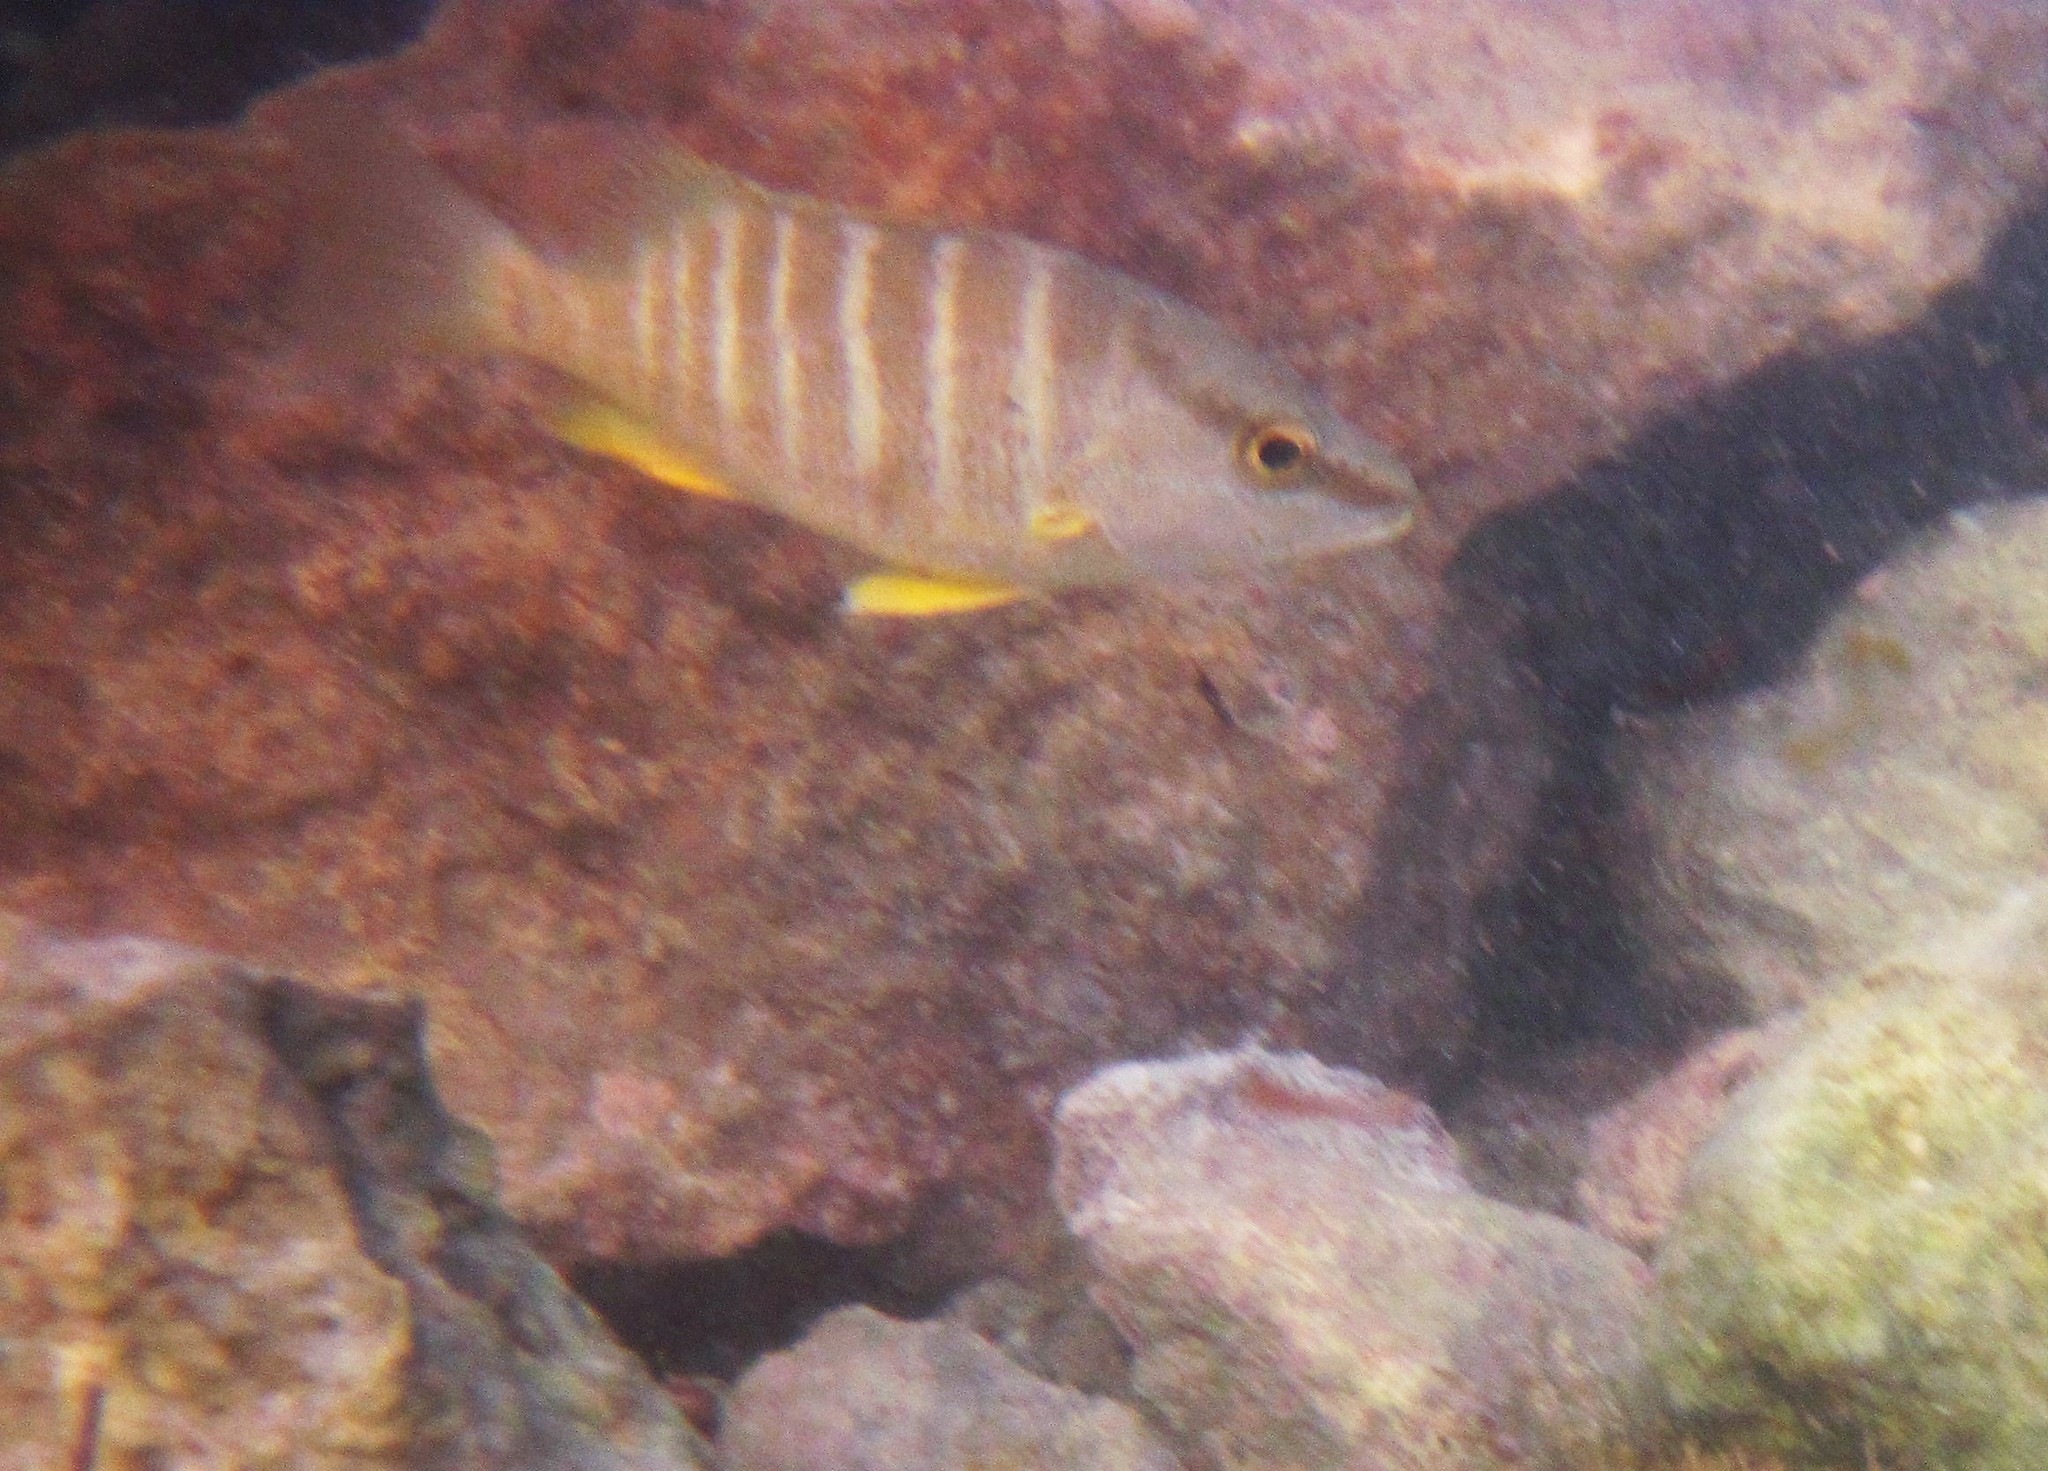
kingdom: Animalia
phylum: Chordata
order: Perciformes
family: Lutjanidae
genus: Lutjanus
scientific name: Lutjanus apodus
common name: Schoolmaster
